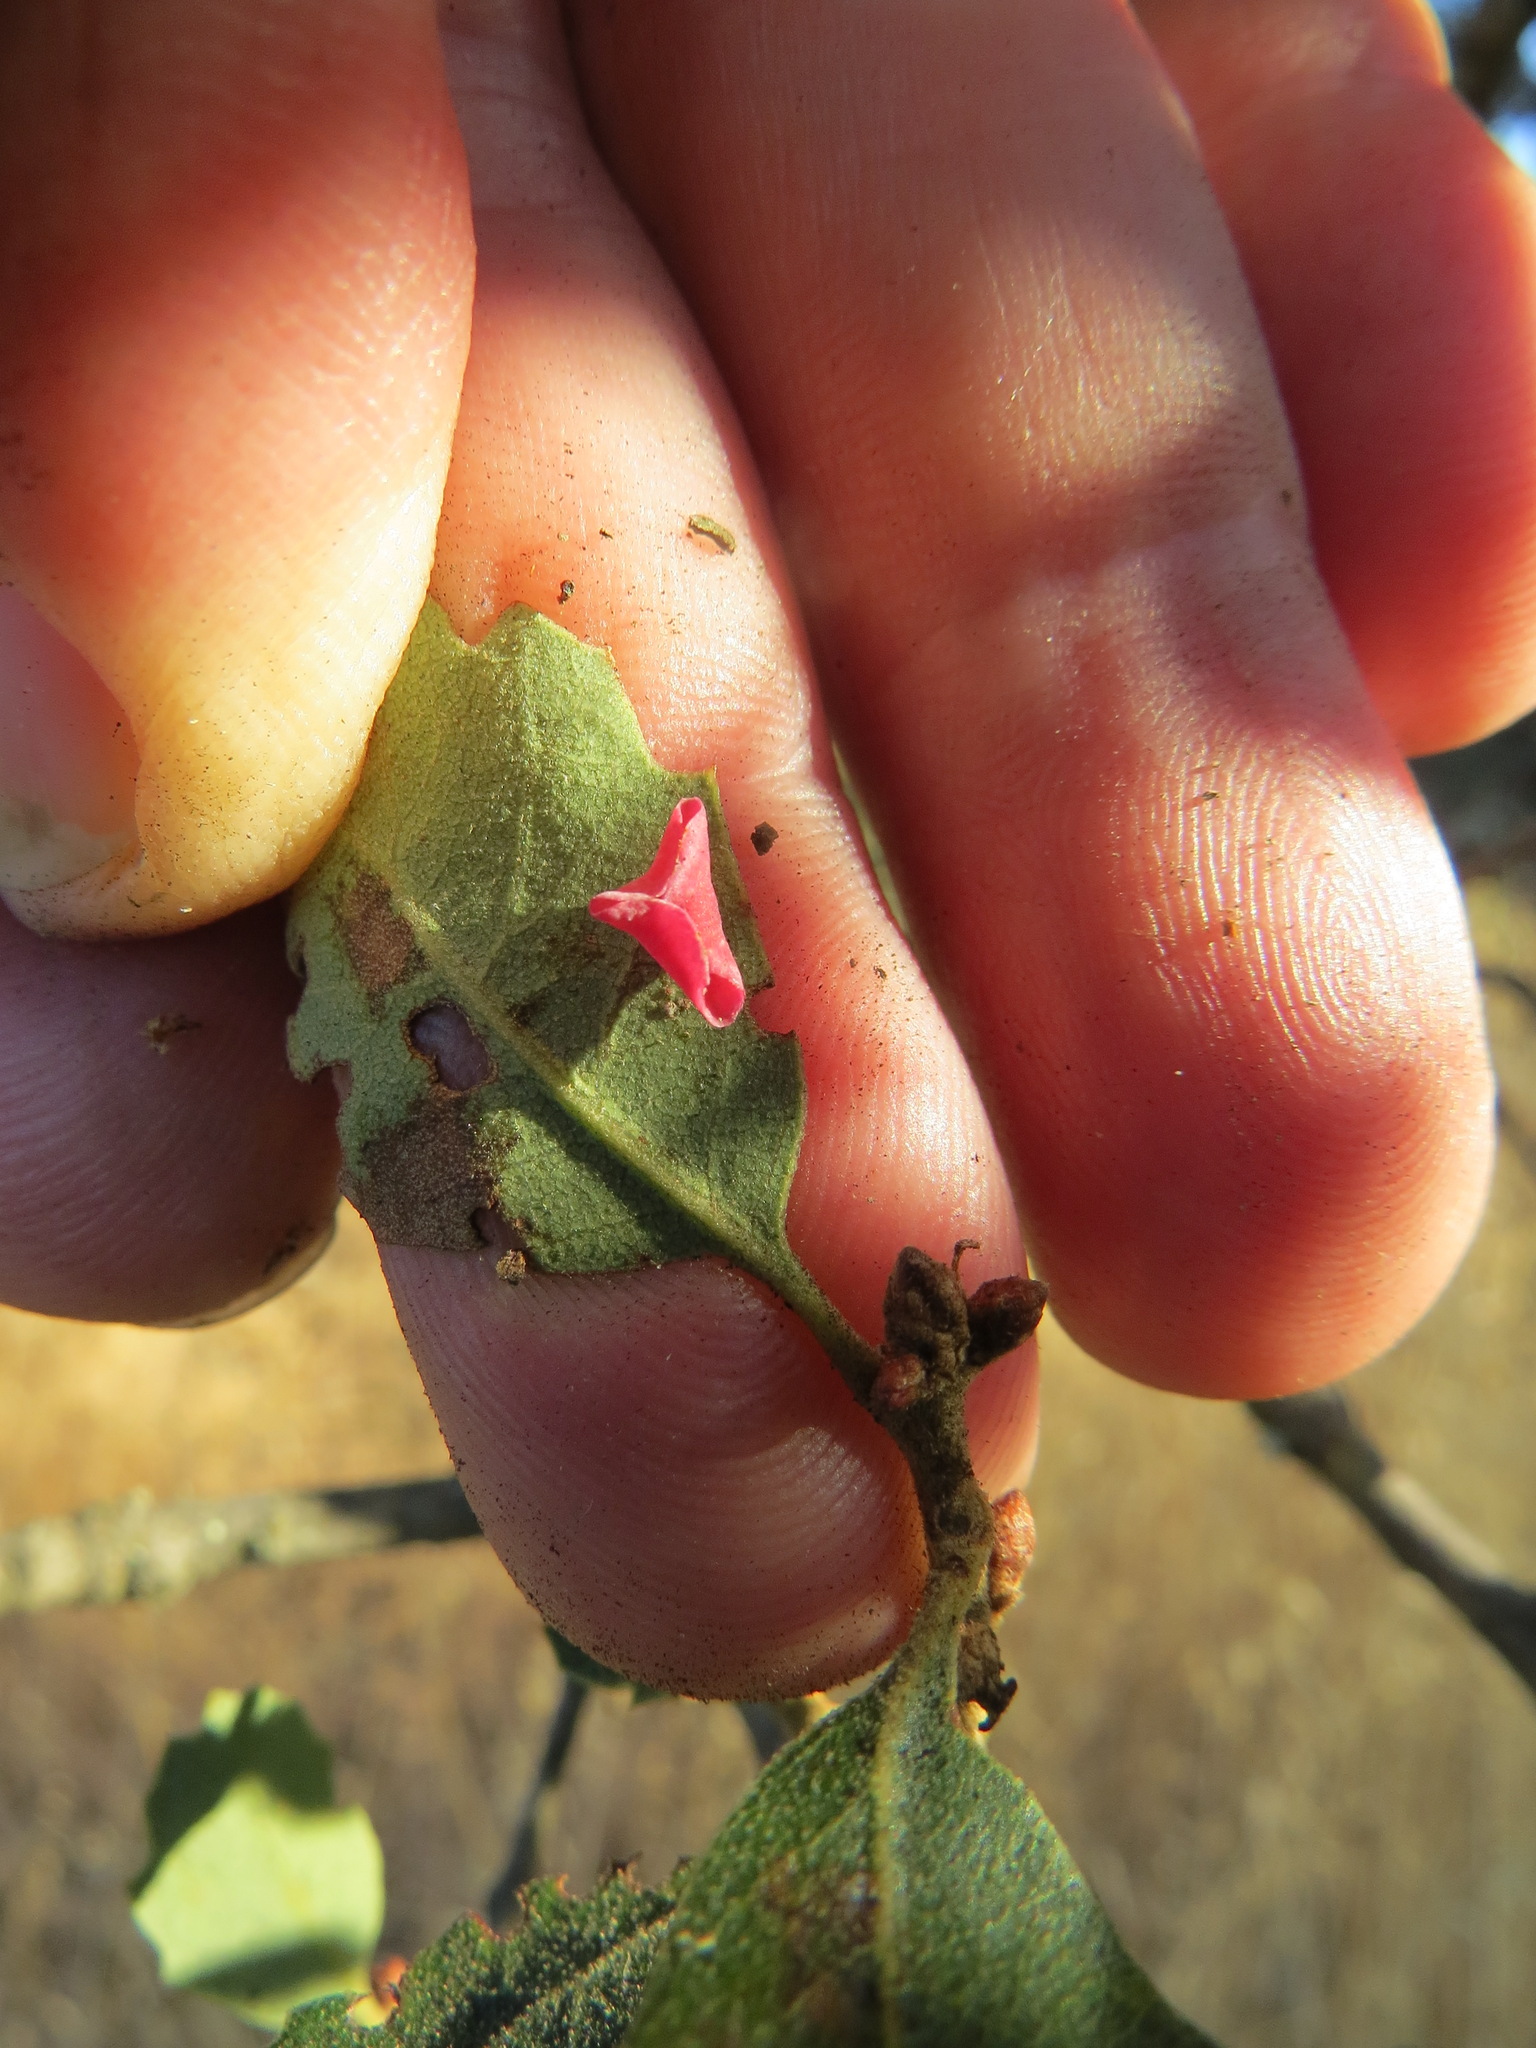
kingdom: Animalia
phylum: Arthropoda
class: Insecta
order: Hymenoptera
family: Cynipidae
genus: Andricus
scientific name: Andricus
